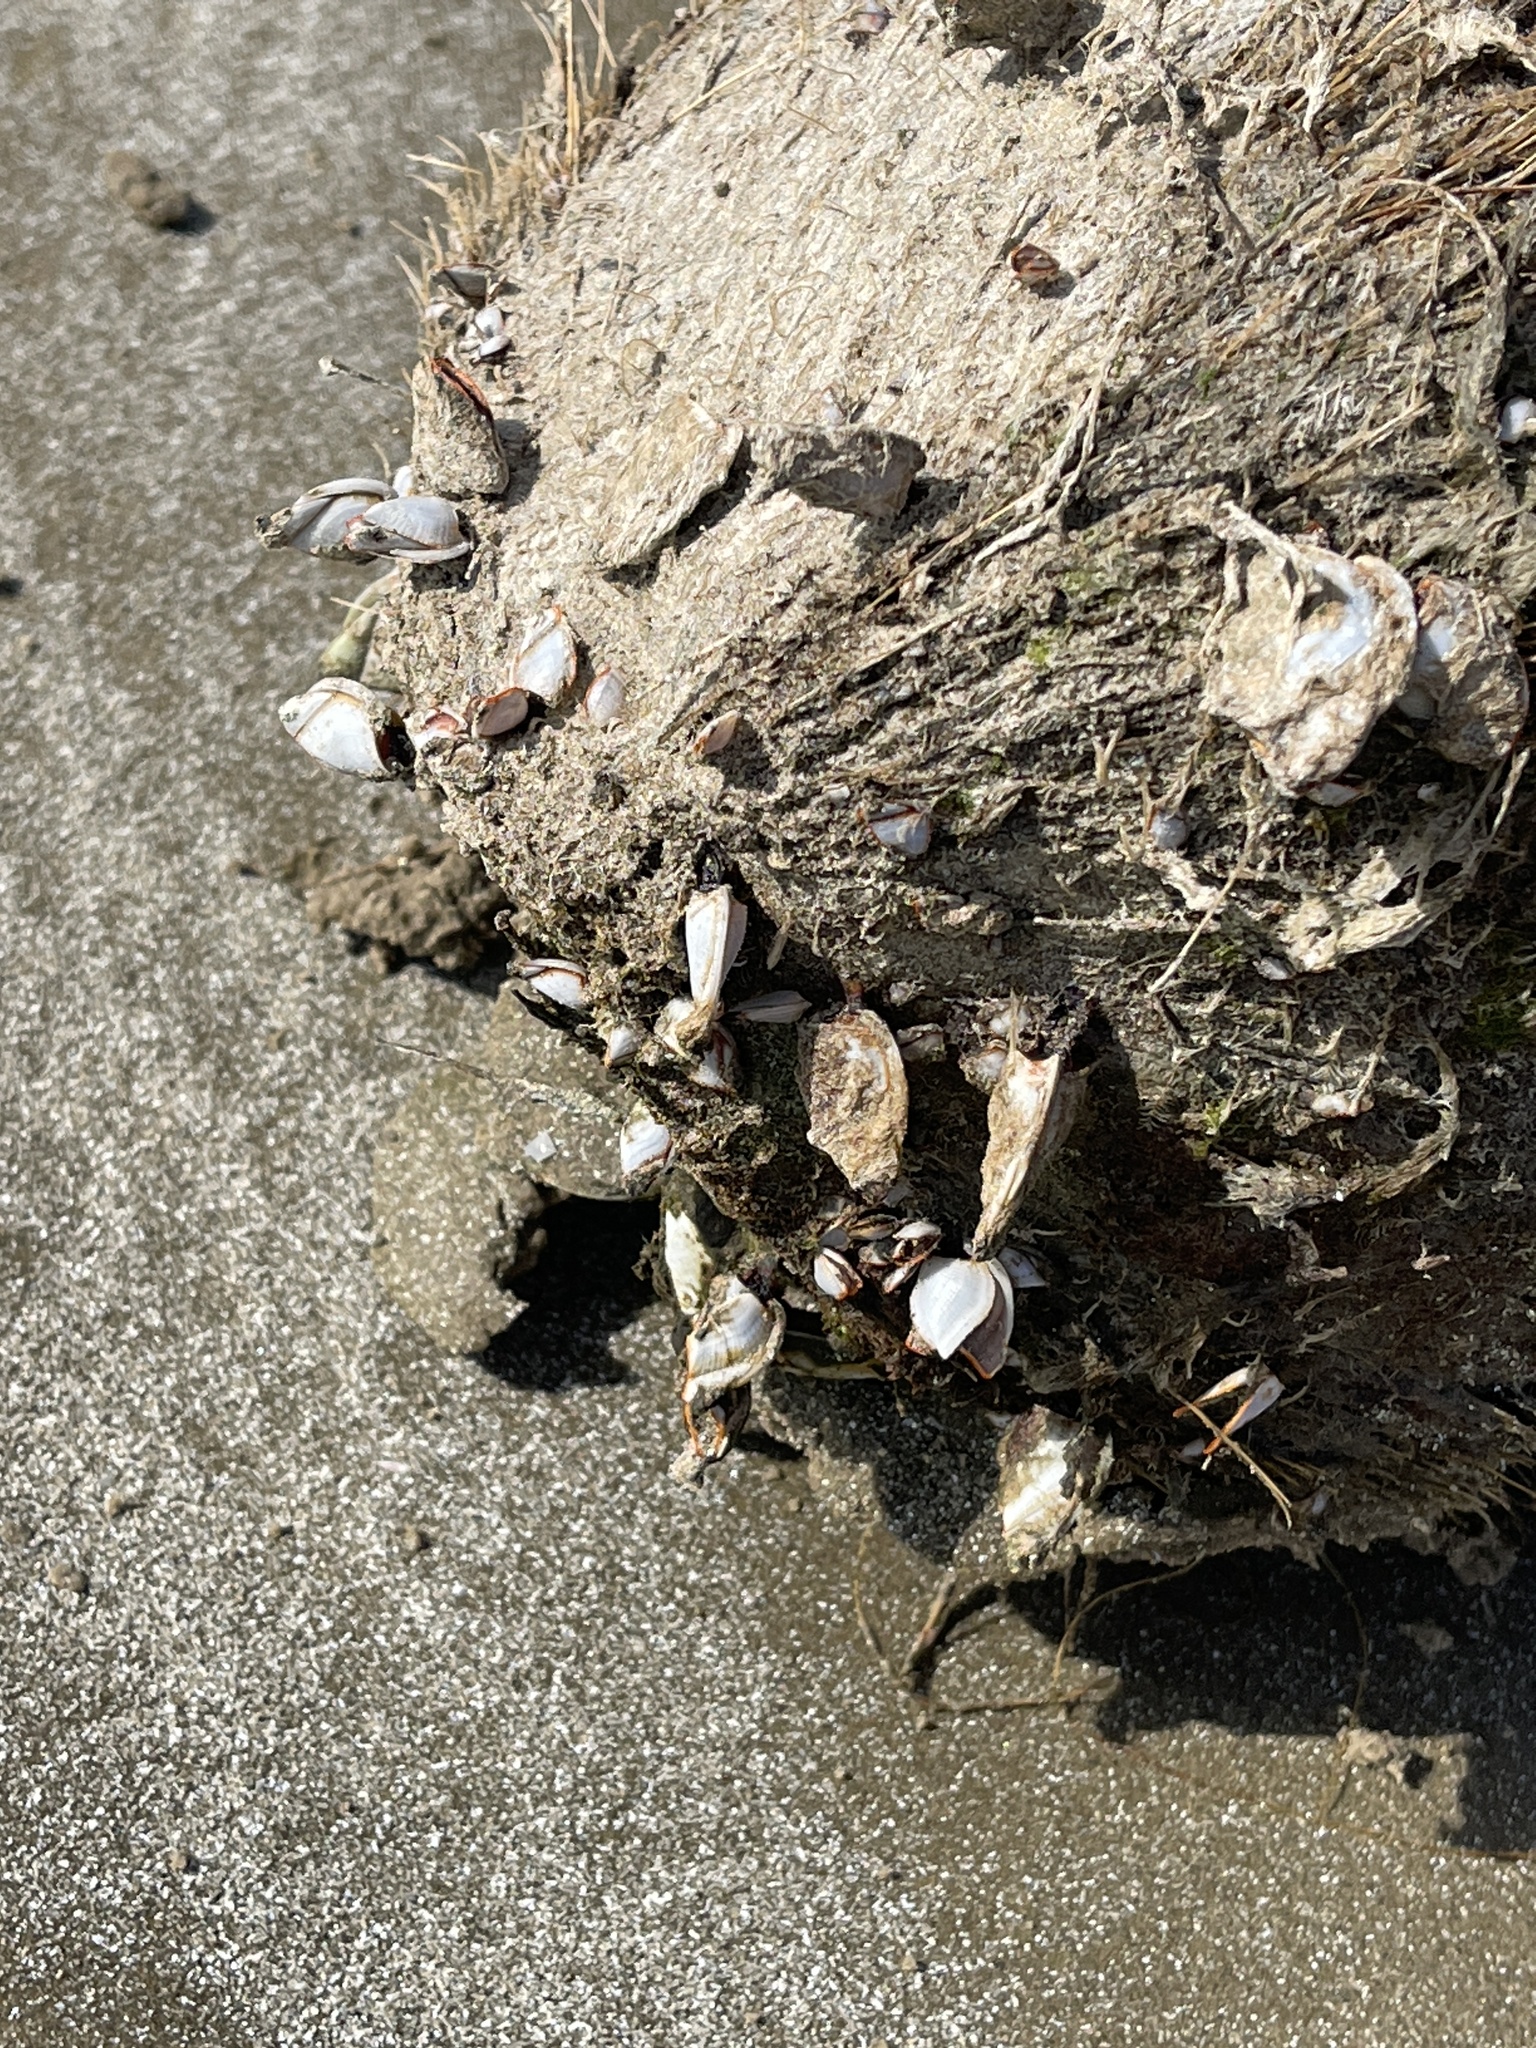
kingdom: Animalia
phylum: Arthropoda
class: Maxillopoda
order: Pedunculata
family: Lepadidae
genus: Lepas
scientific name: Lepas anserifera
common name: Goose barnacle
